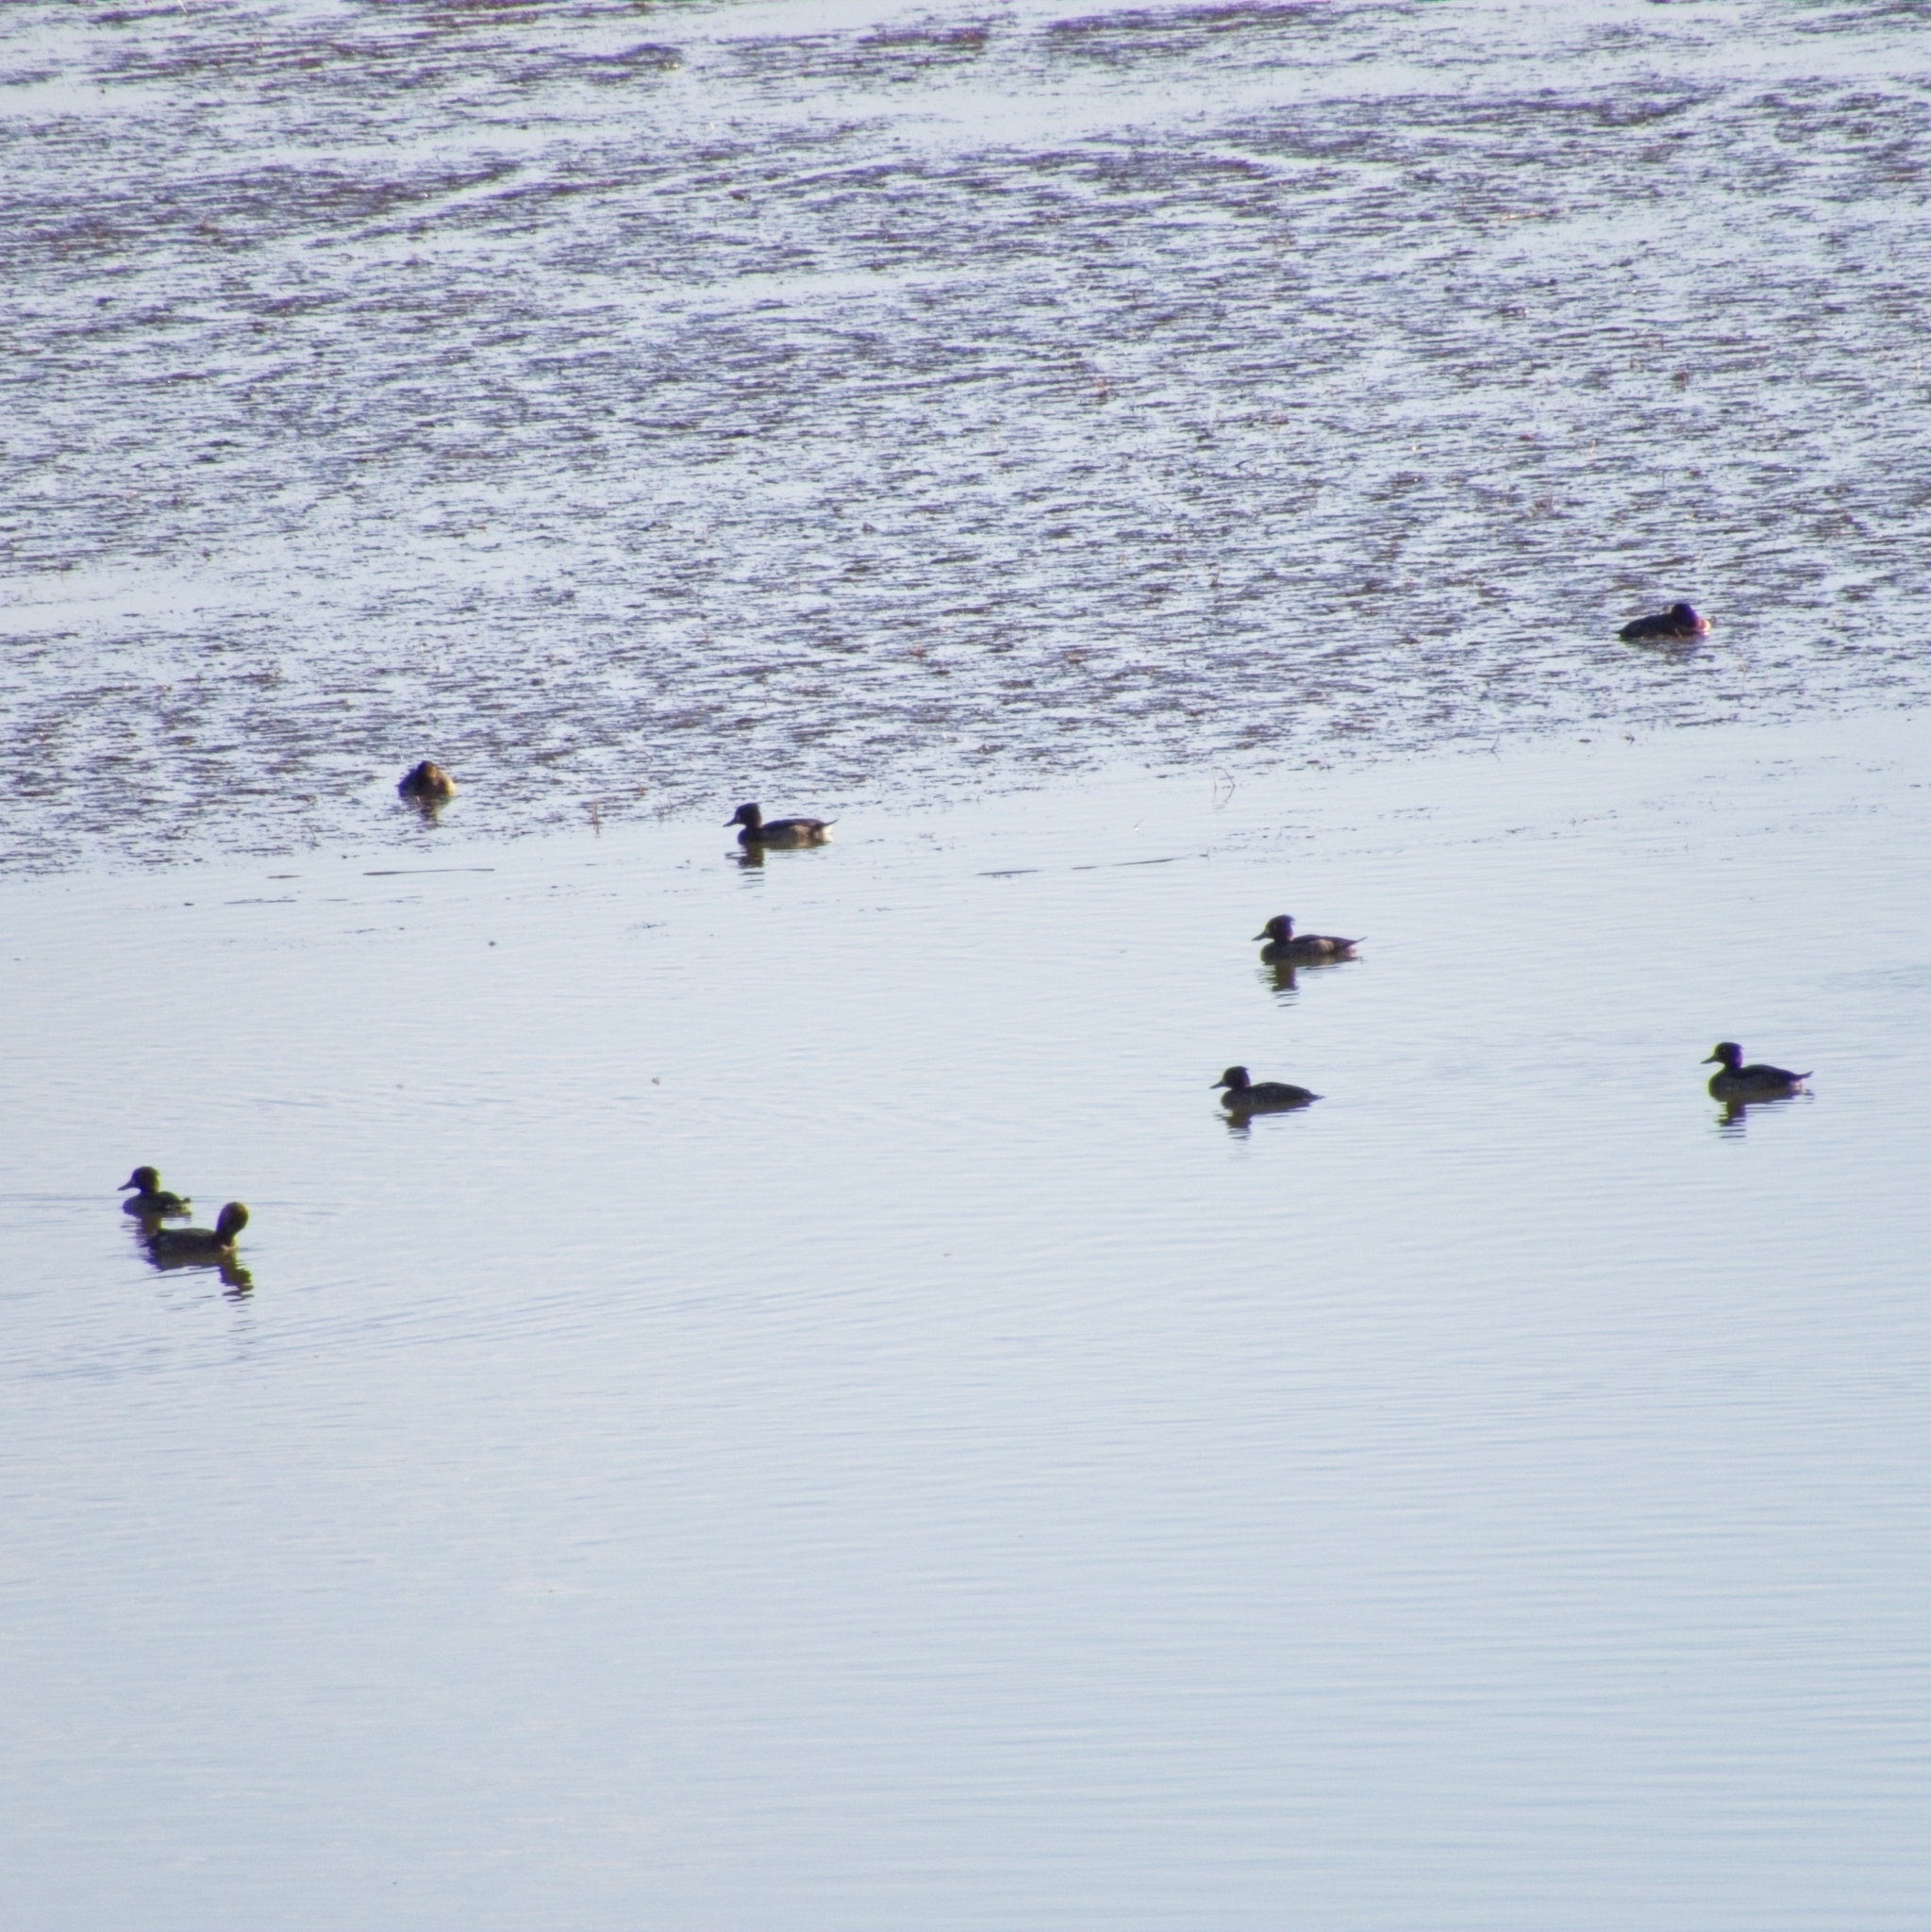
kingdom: Animalia
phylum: Chordata
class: Aves
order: Anseriformes
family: Anatidae
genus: Aythya
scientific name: Aythya fuligula
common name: Tufted duck
